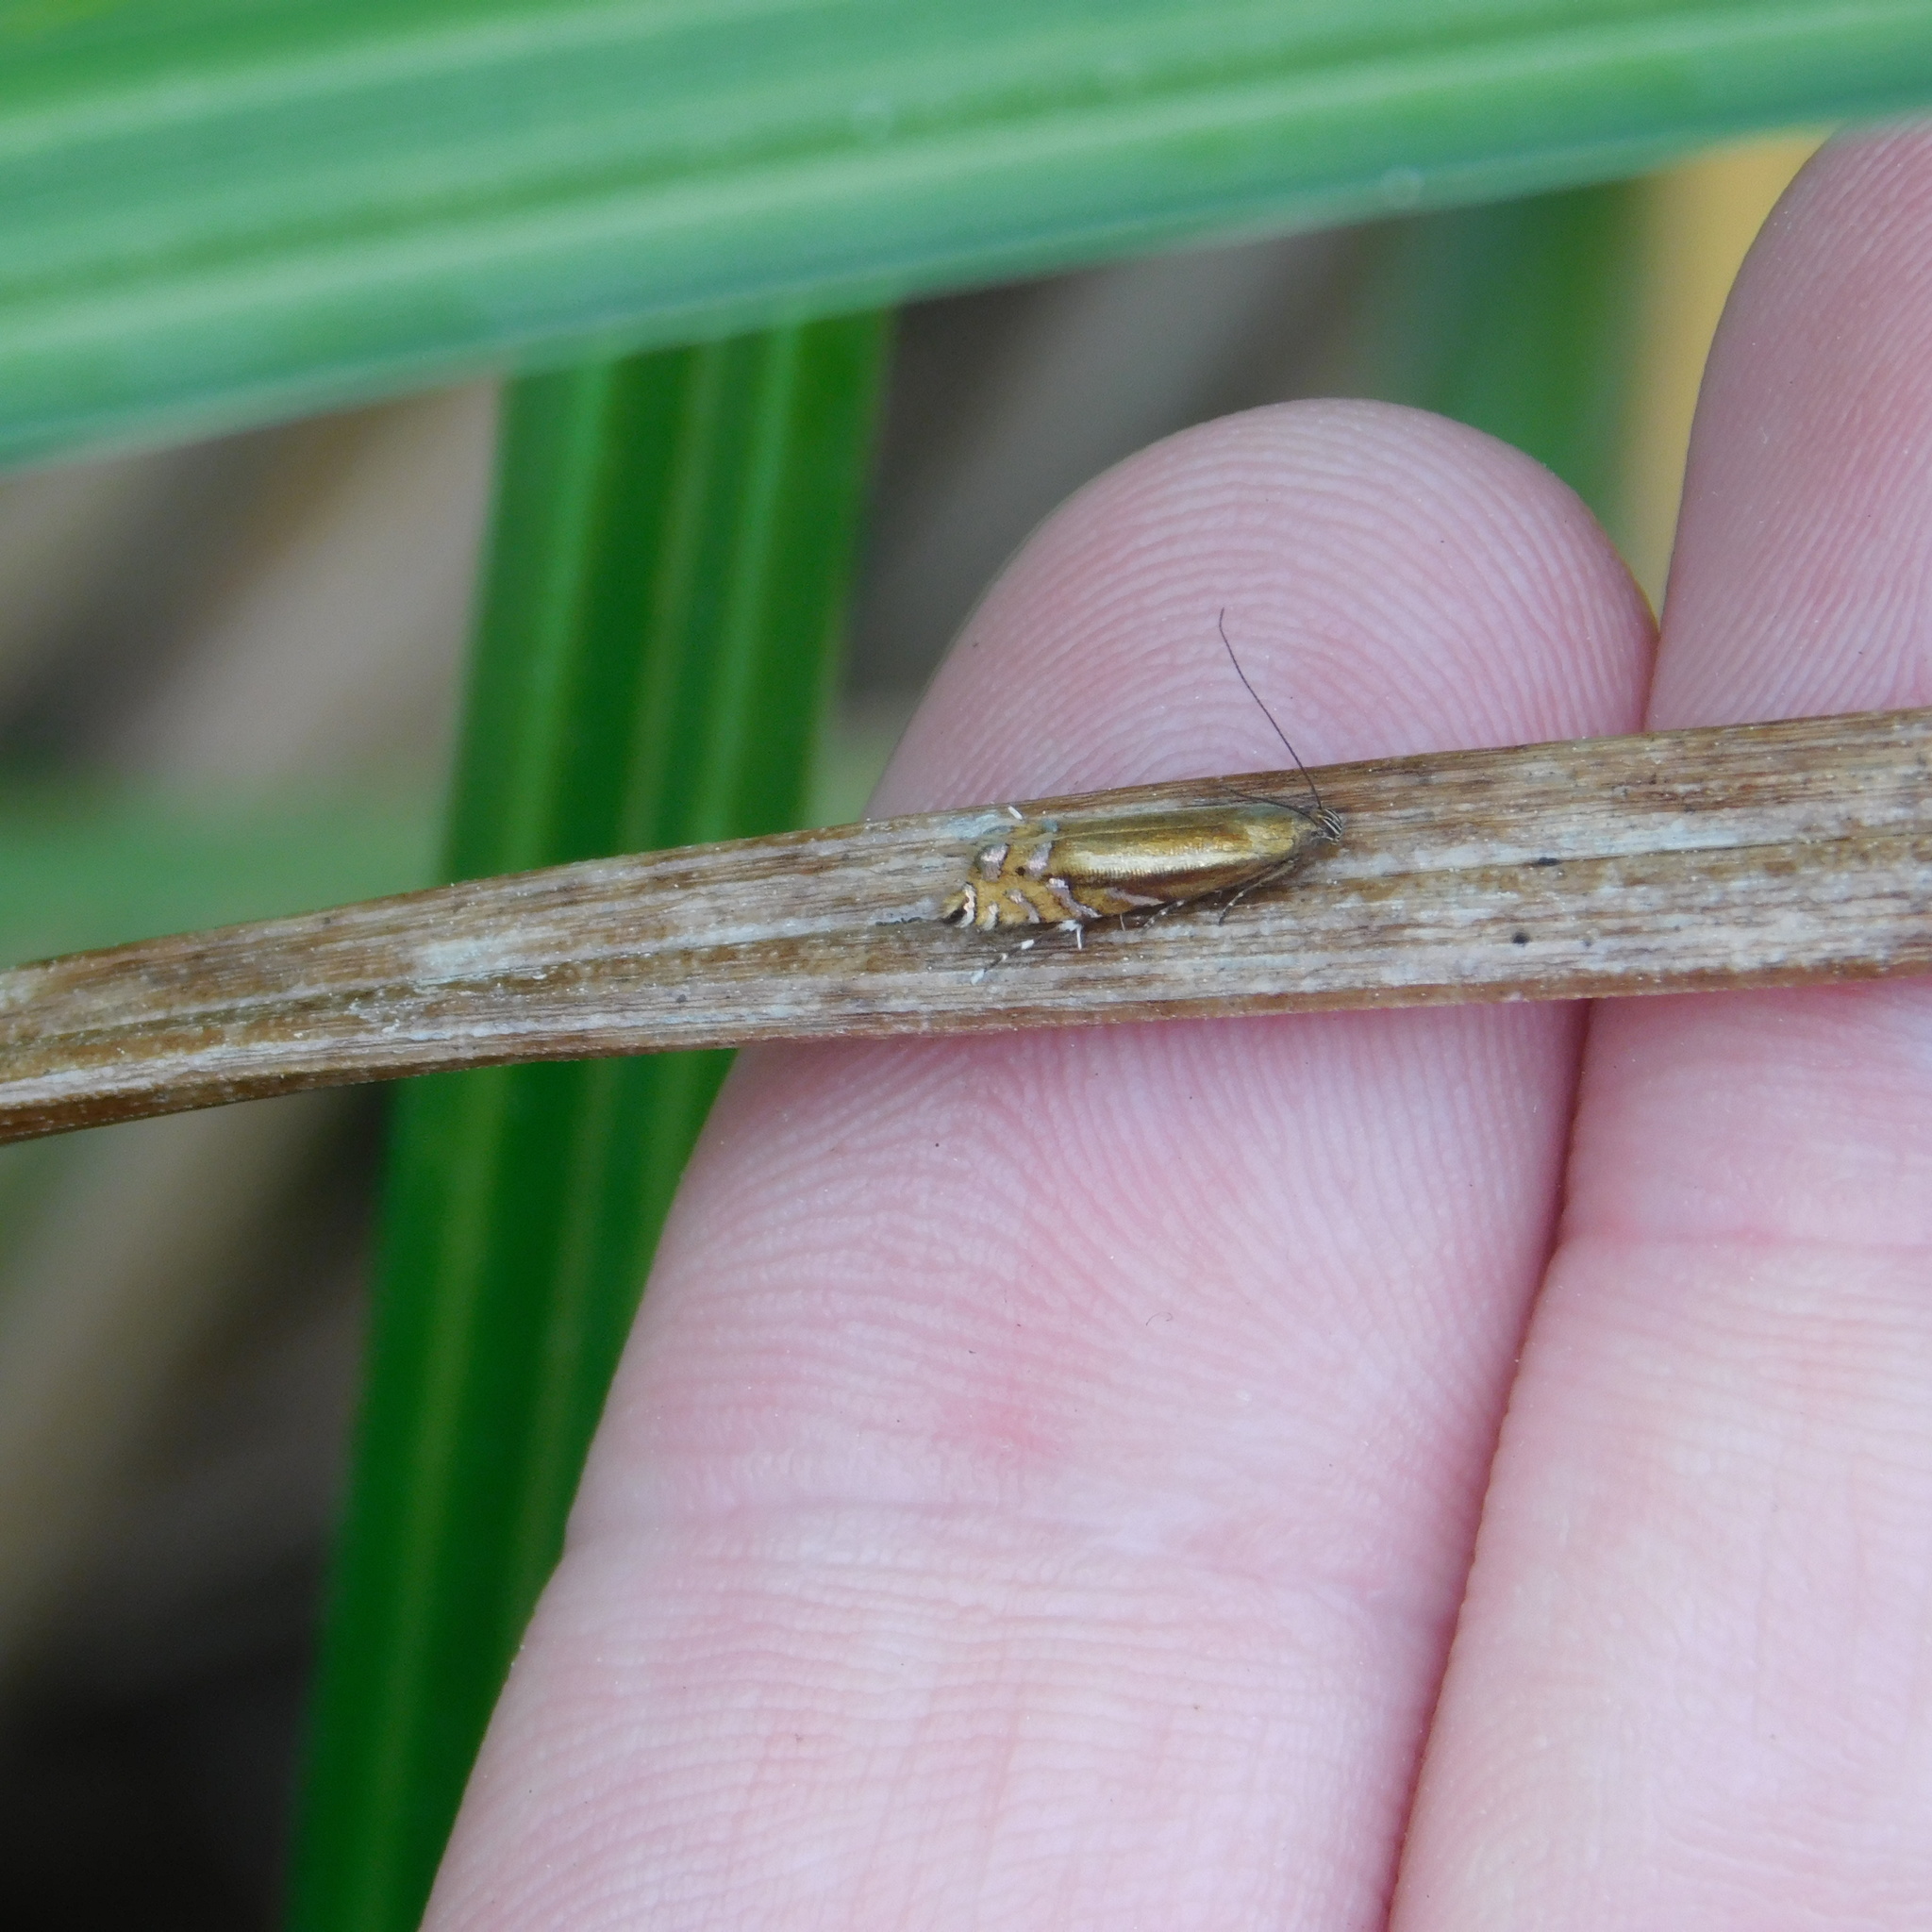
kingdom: Animalia
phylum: Arthropoda
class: Insecta
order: Lepidoptera
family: Glyphipterigidae
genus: Glyphipterix
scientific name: Glyphipterix scintilella
